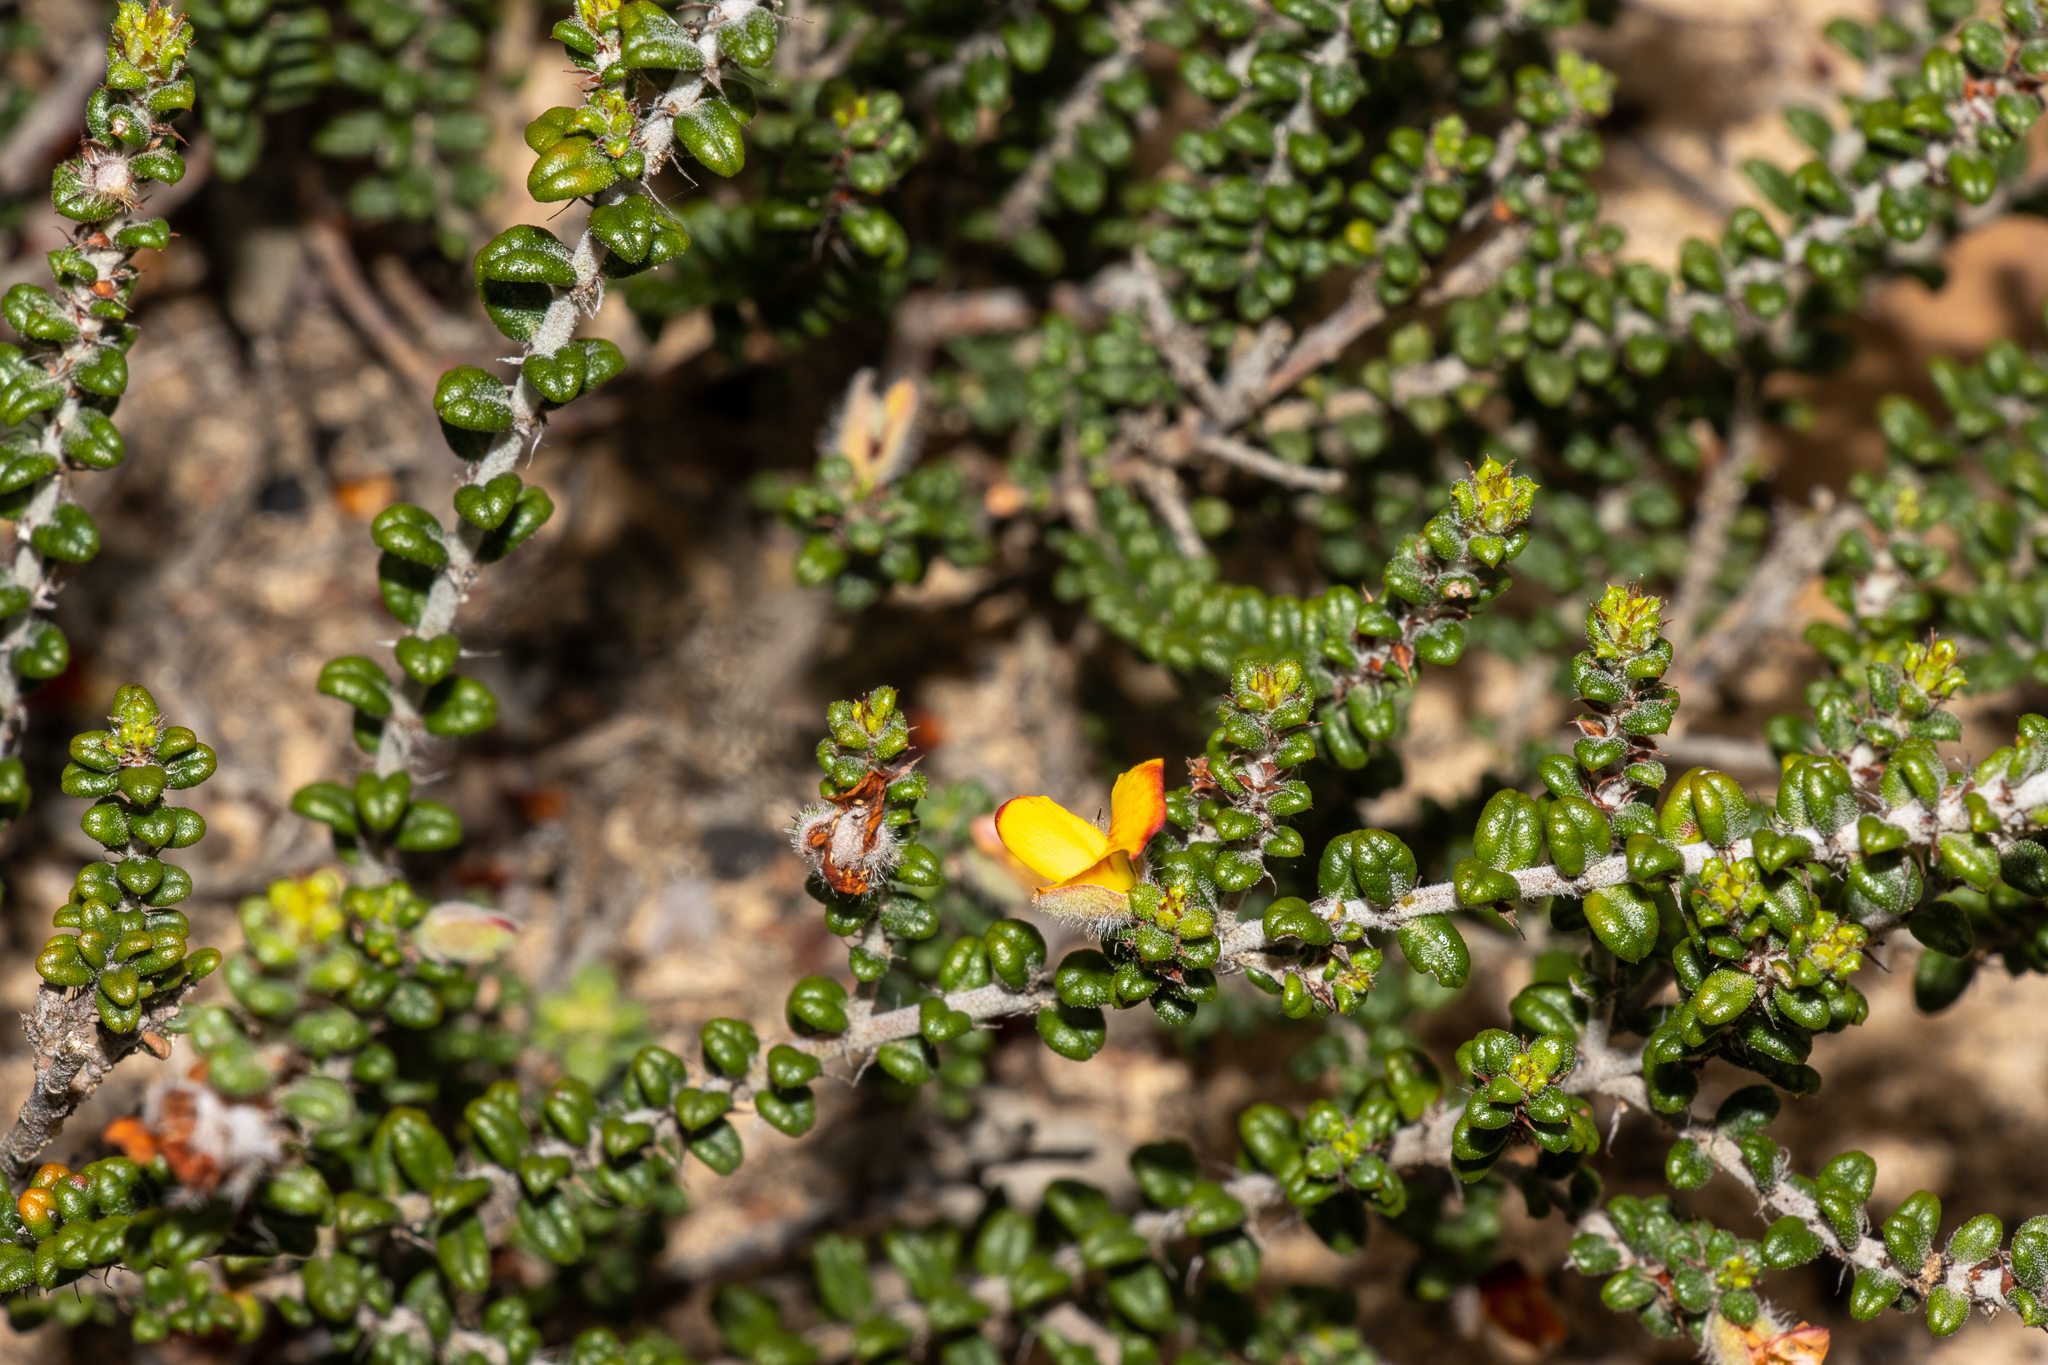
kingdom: Plantae
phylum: Tracheophyta
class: Magnoliopsida
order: Fabales
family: Fabaceae
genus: Pultenaea
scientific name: Pultenaea elachista
